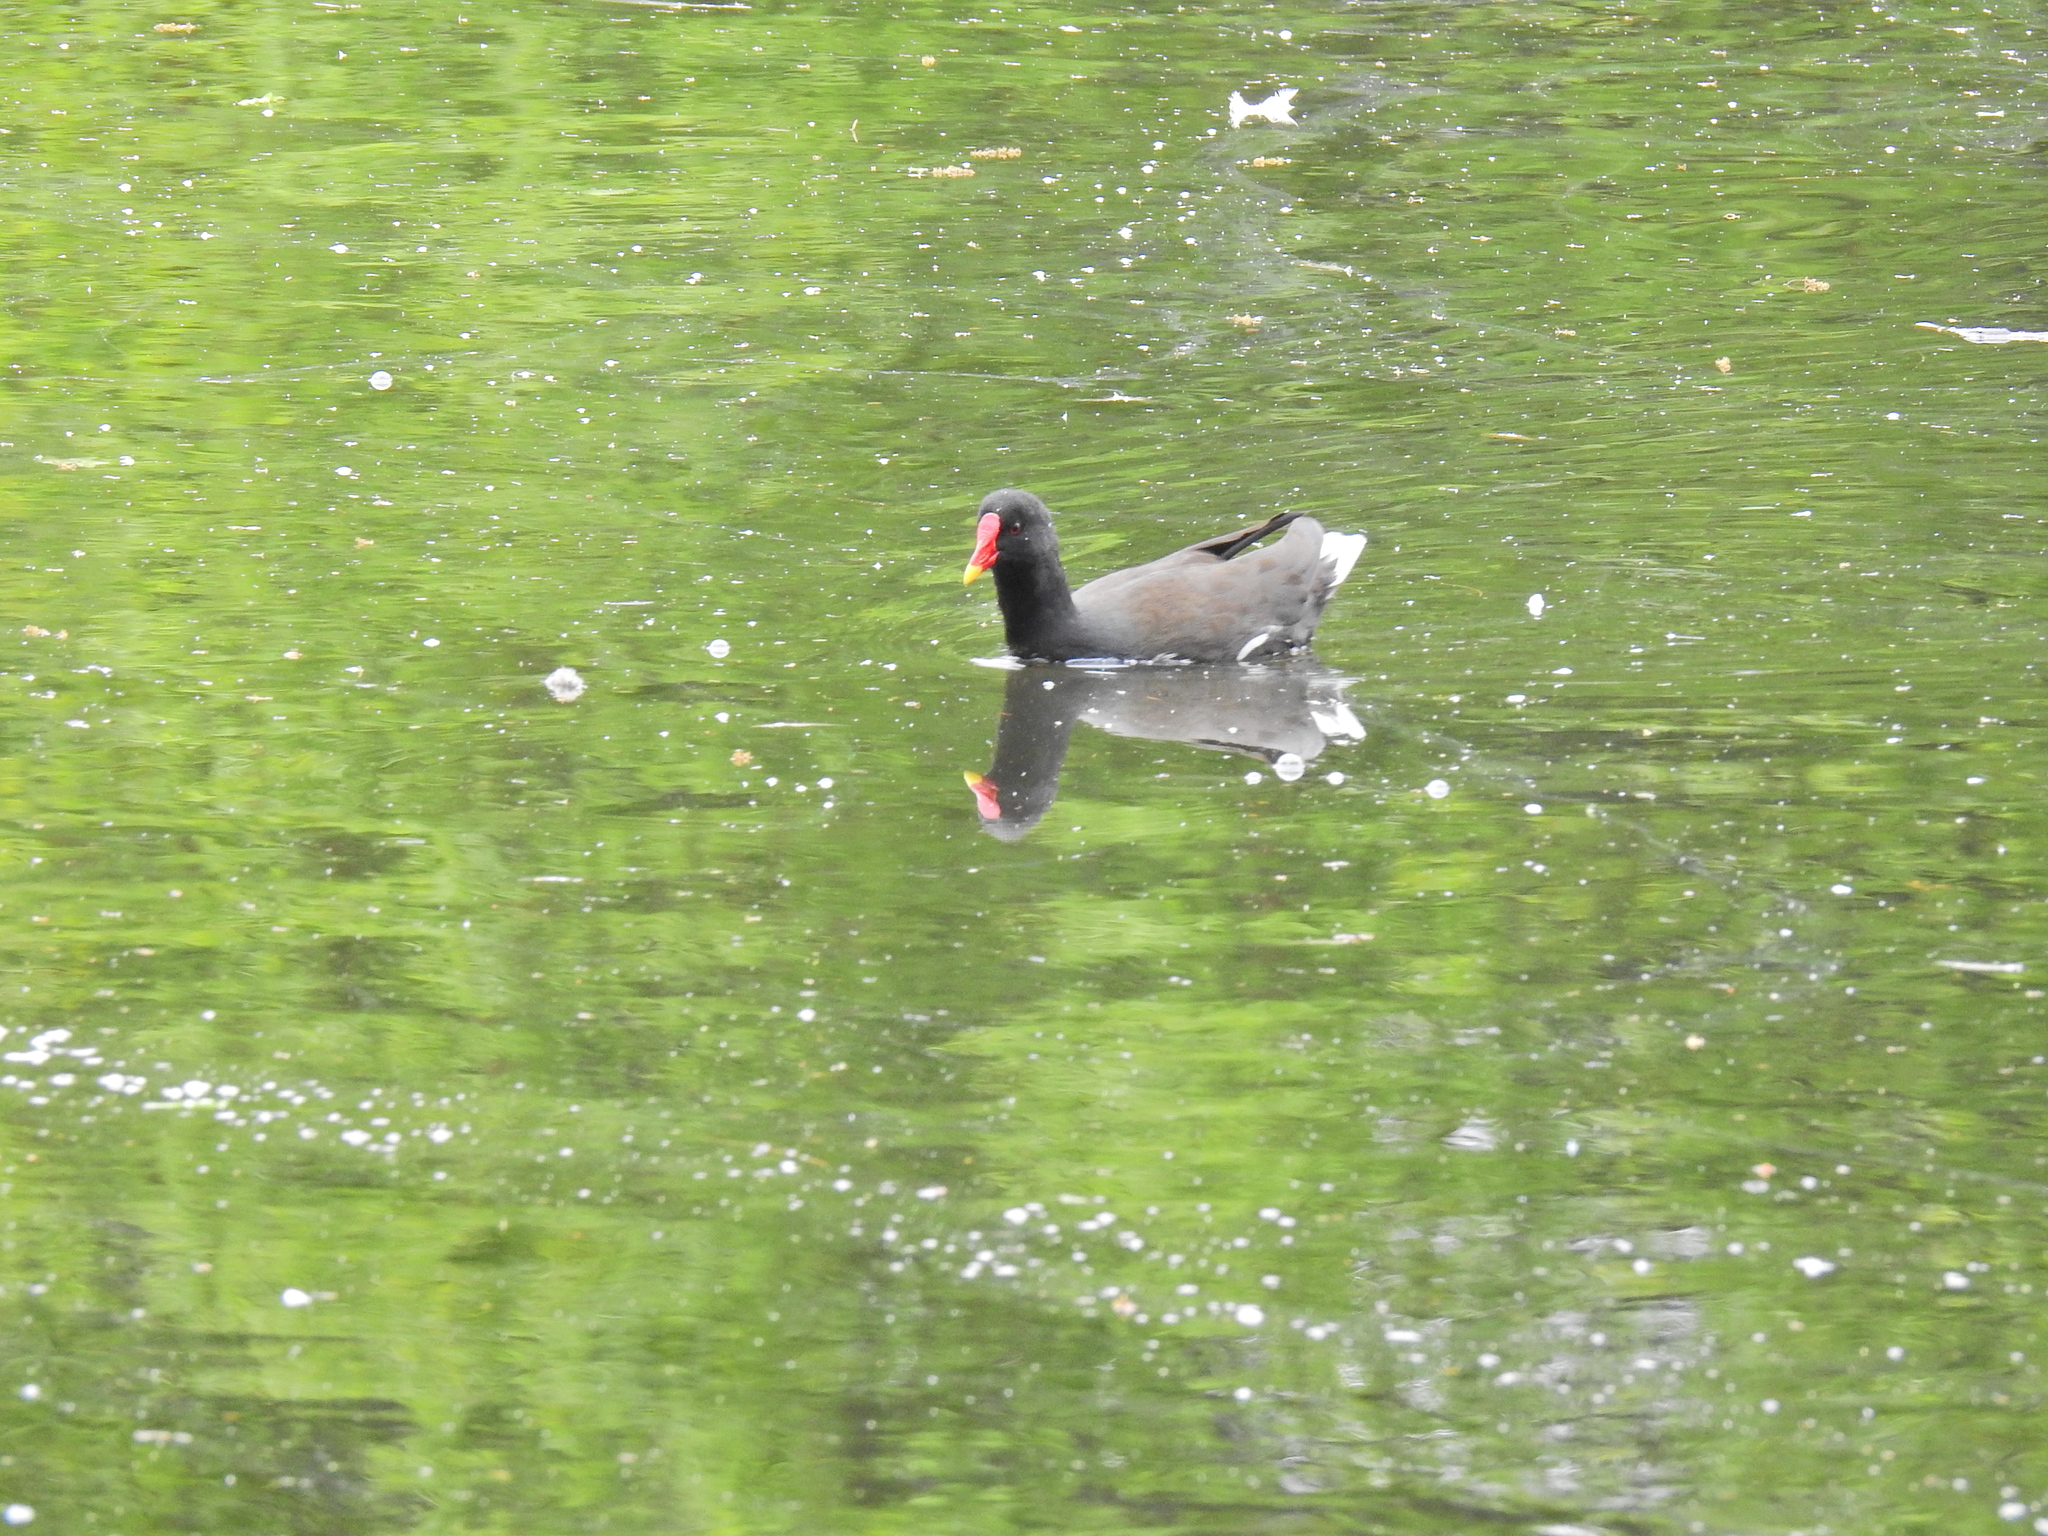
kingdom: Animalia
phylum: Chordata
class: Aves
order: Gruiformes
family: Rallidae
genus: Gallinula
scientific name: Gallinula chloropus
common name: Common moorhen
